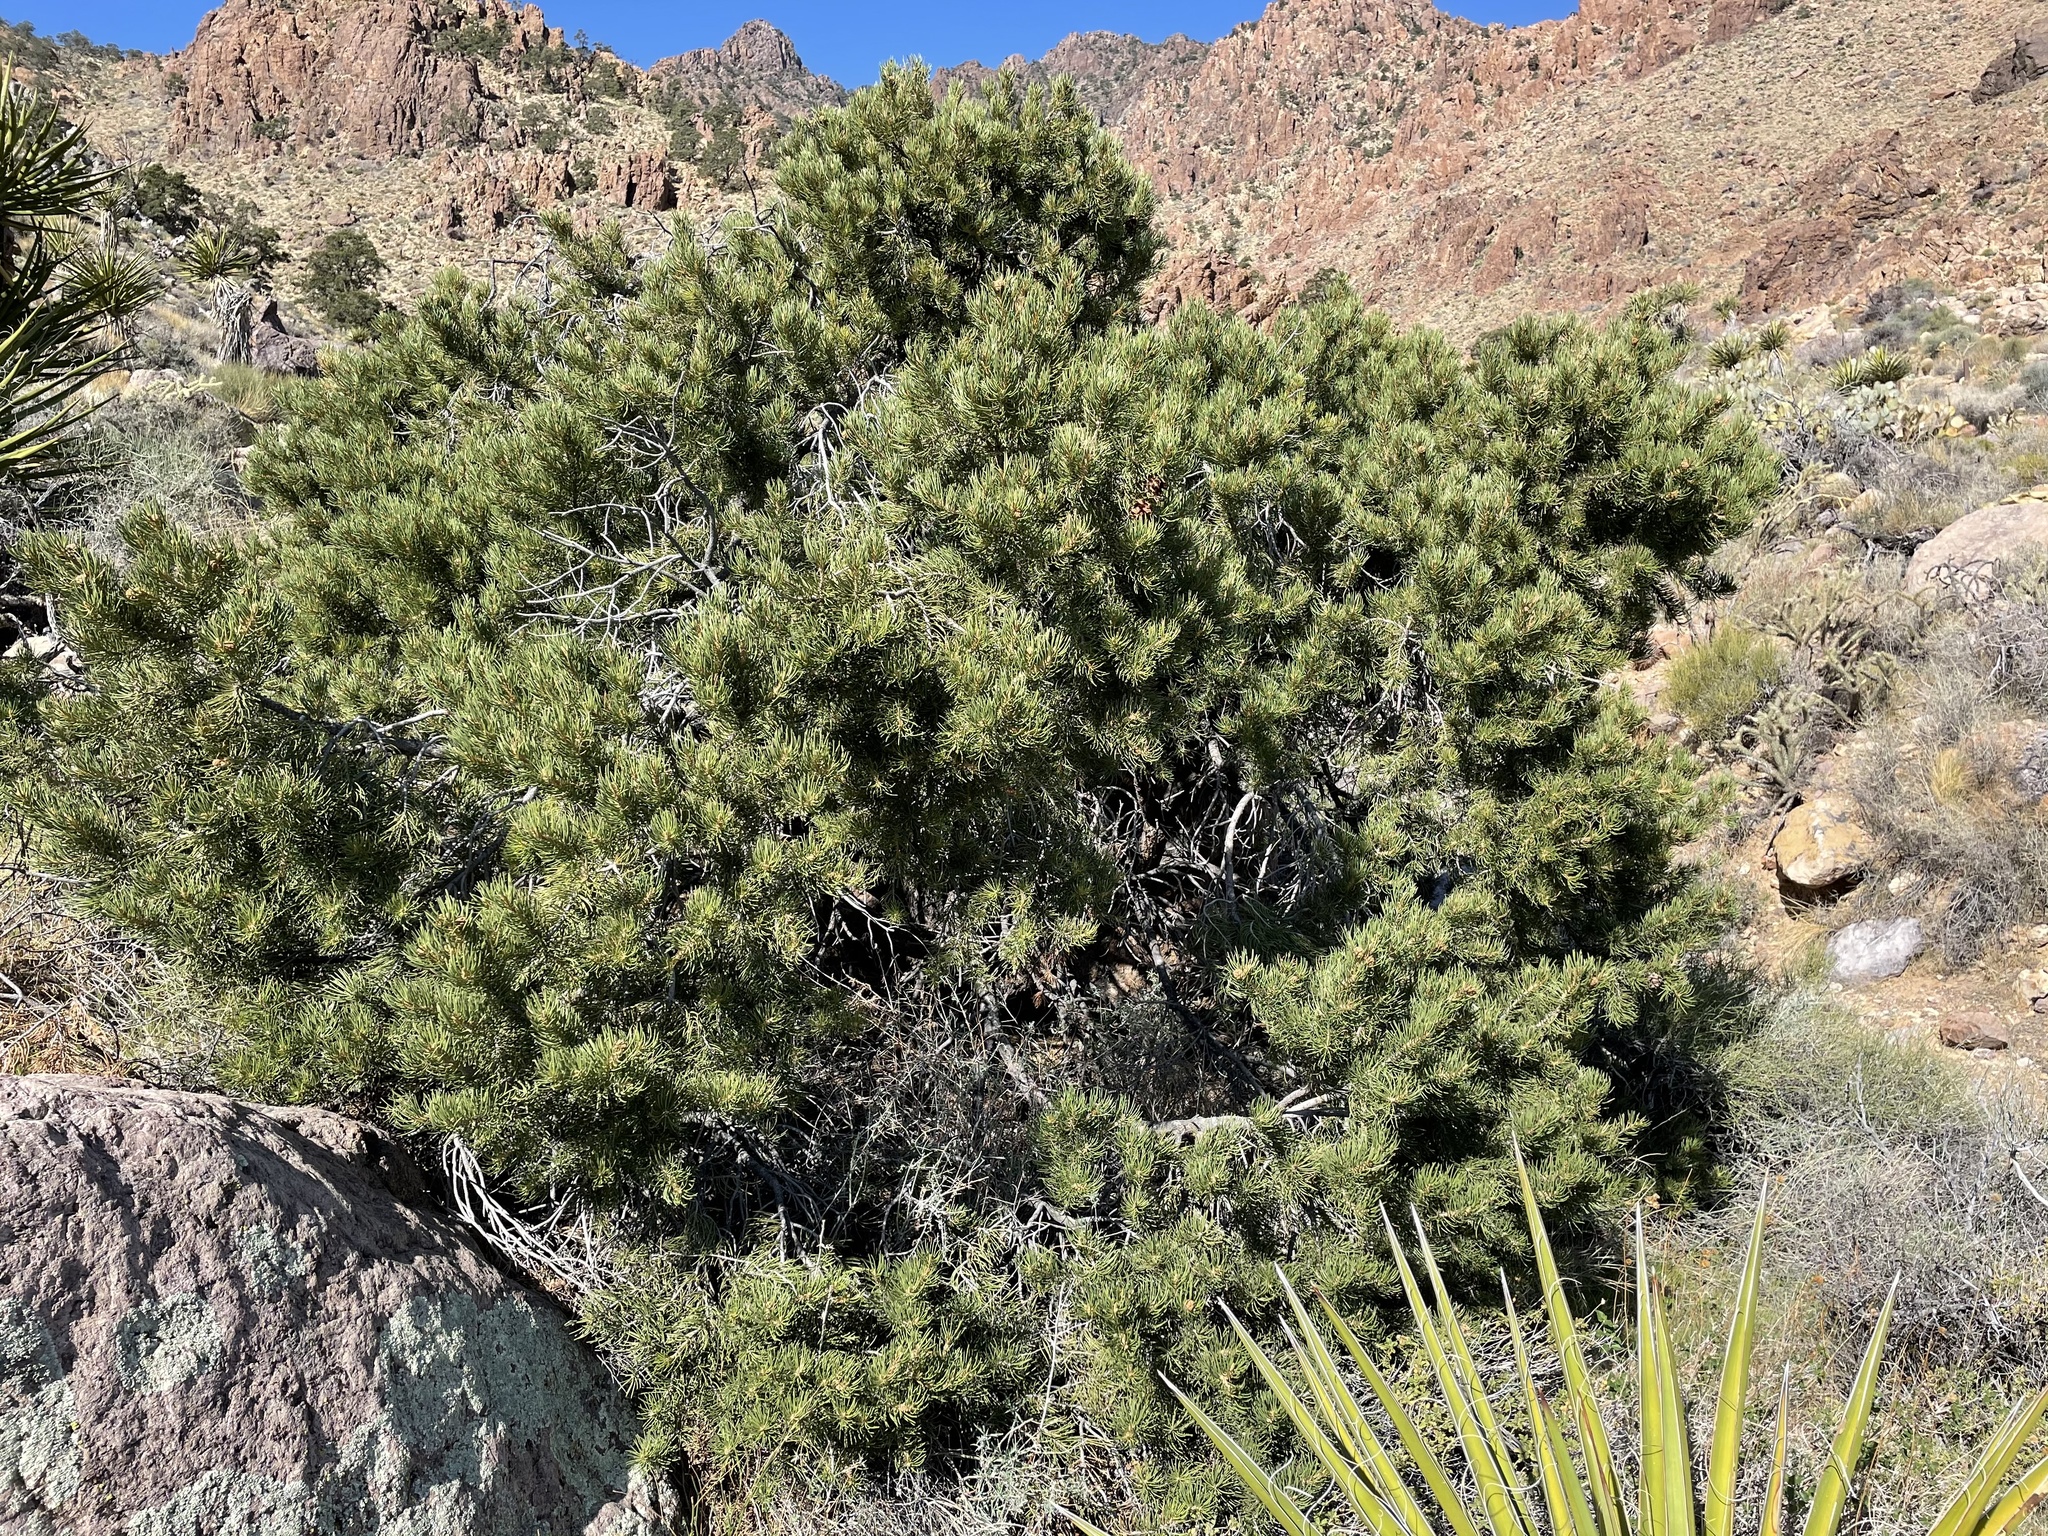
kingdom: Plantae
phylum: Tracheophyta
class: Pinopsida
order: Pinales
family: Pinaceae
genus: Pinus
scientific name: Pinus monophylla
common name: One-leaved nut pine
